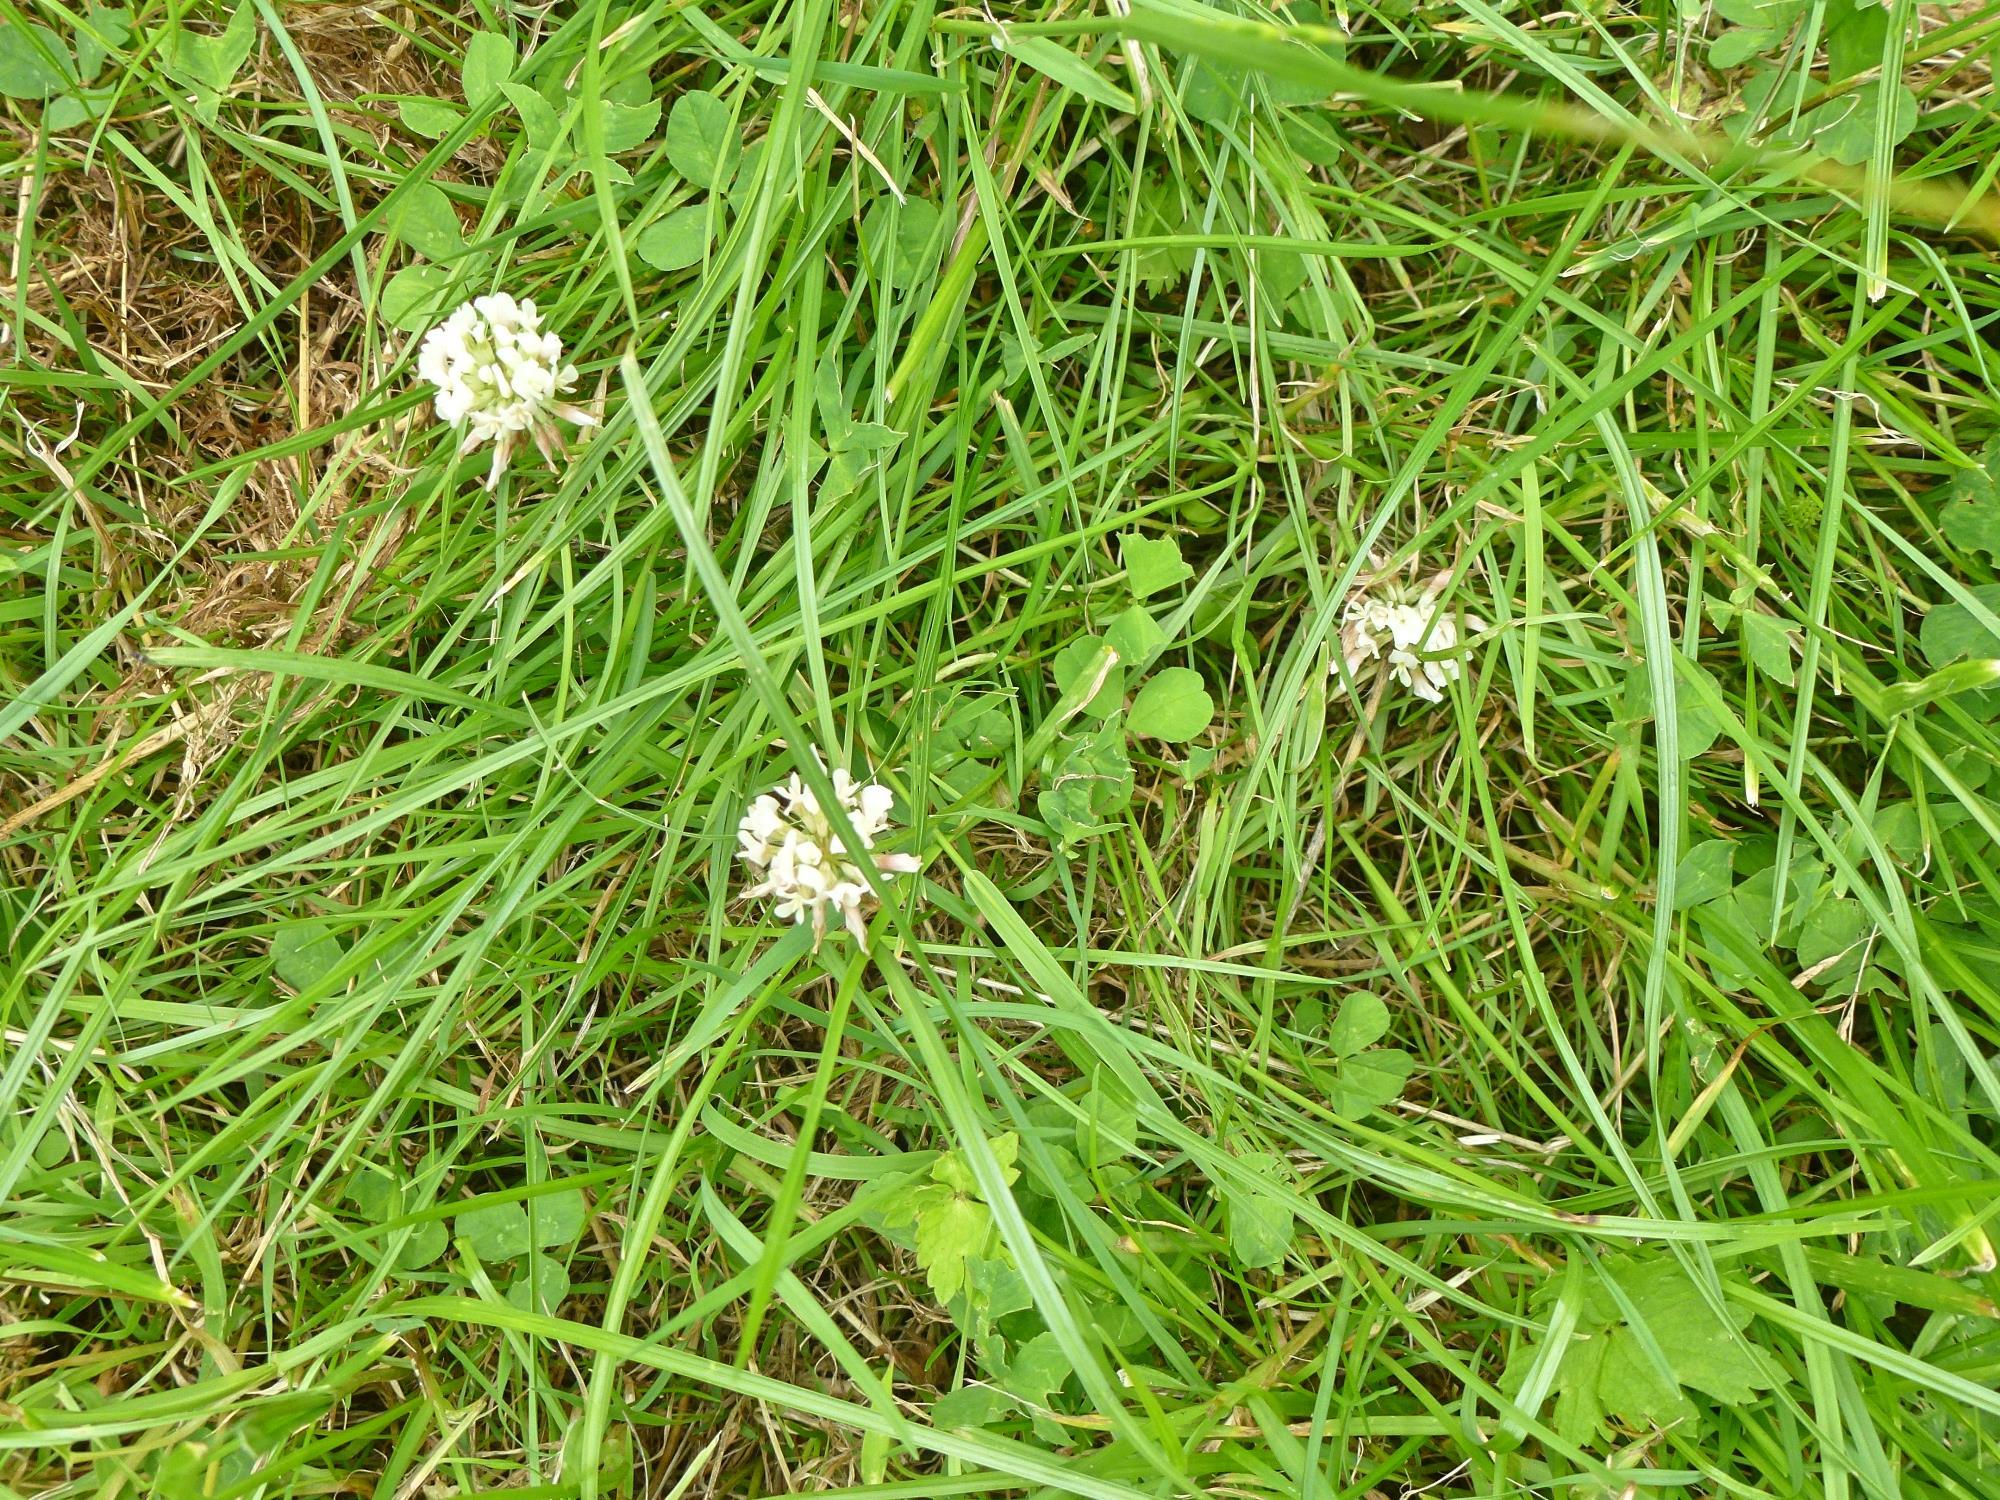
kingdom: Plantae
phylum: Tracheophyta
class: Magnoliopsida
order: Fabales
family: Fabaceae
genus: Trifolium
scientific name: Trifolium repens
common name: White clover
